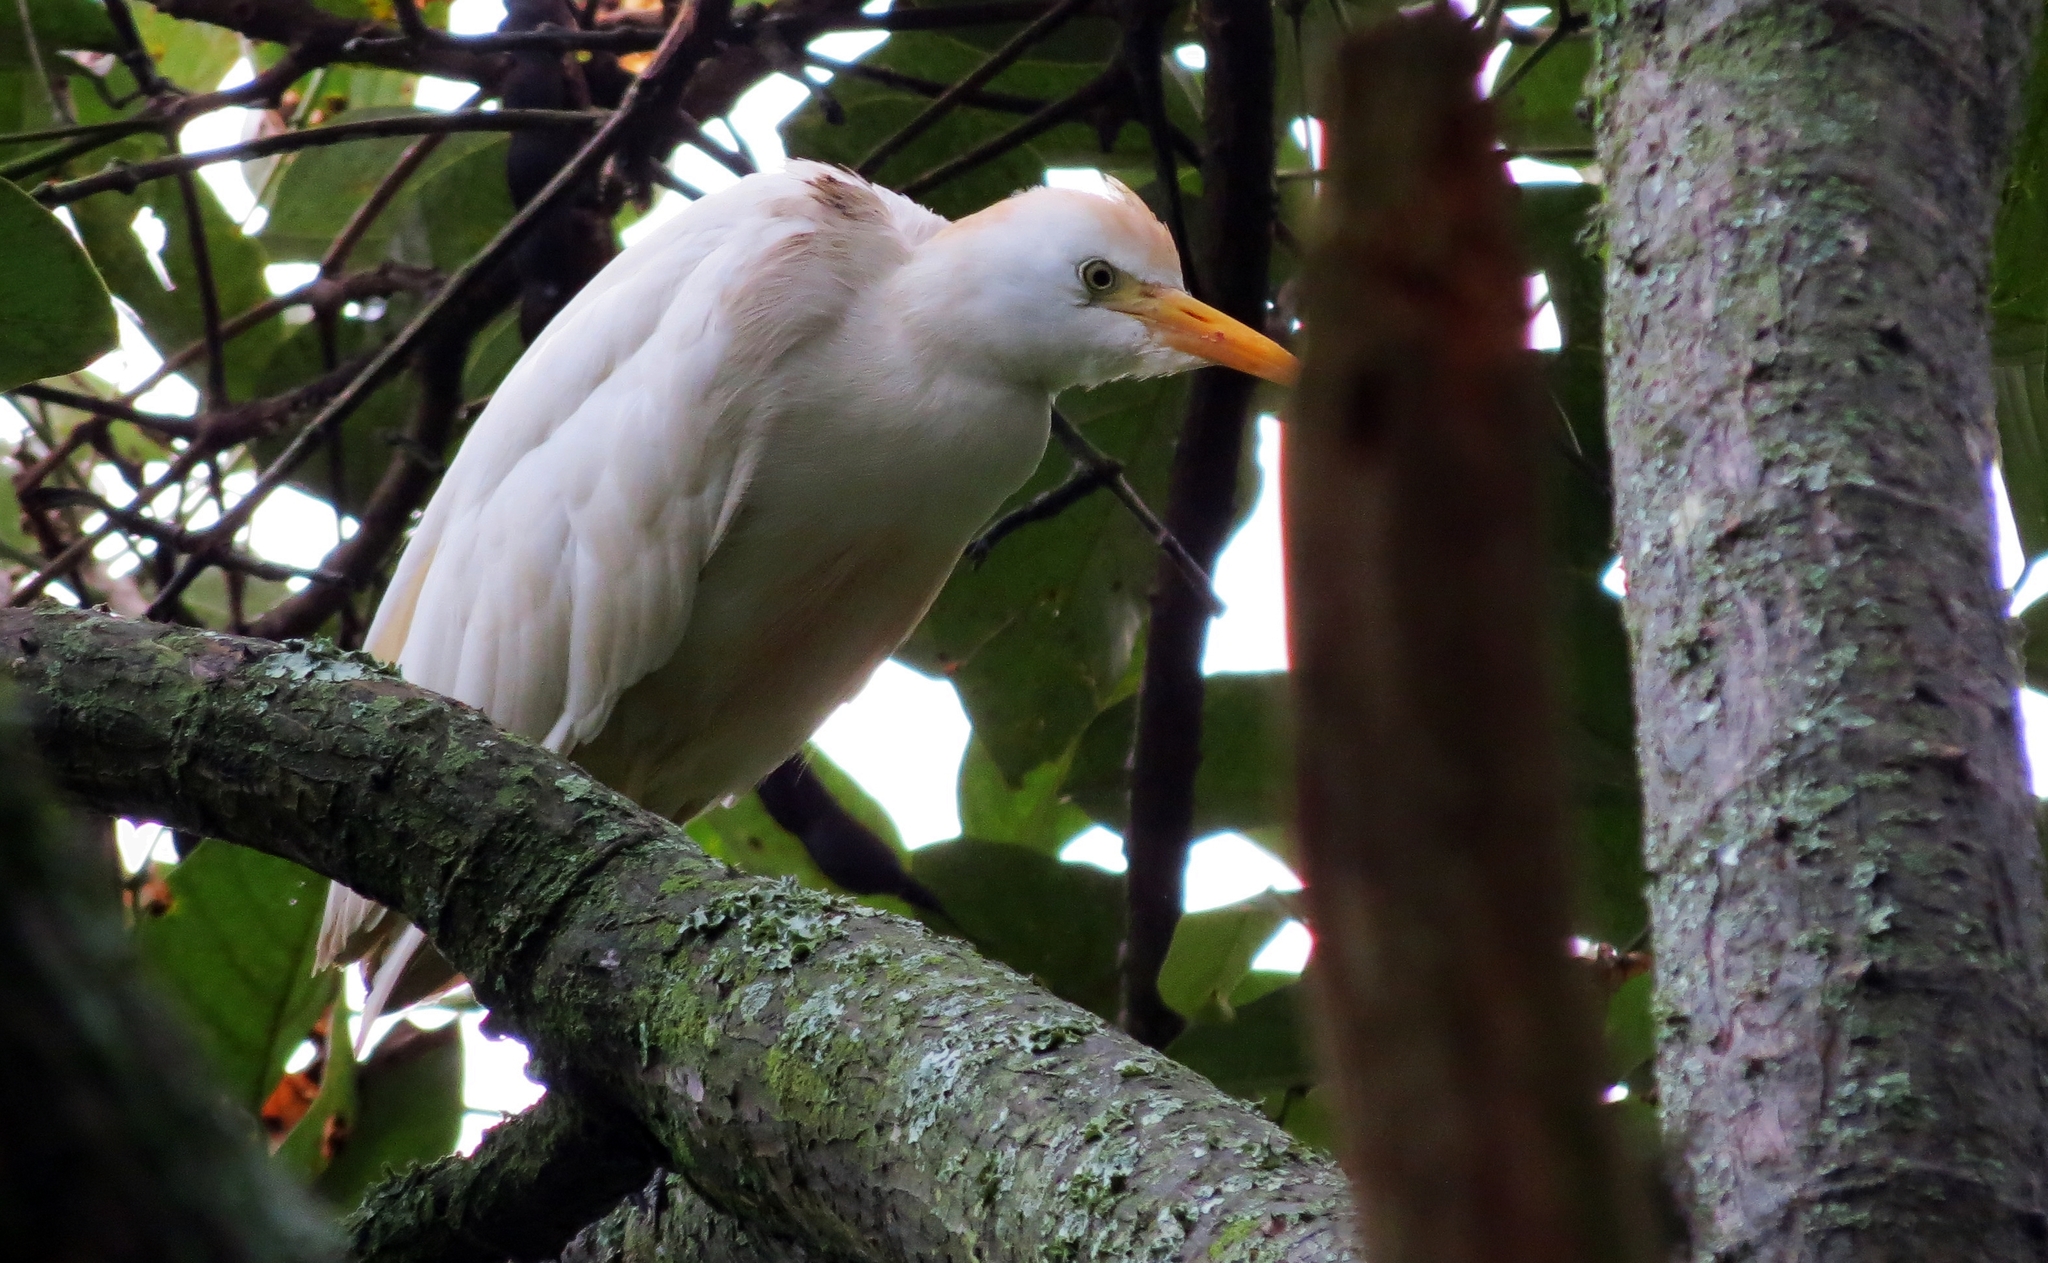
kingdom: Animalia
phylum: Chordata
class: Aves
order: Pelecaniformes
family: Ardeidae
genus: Bubulcus
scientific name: Bubulcus ibis
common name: Cattle egret
